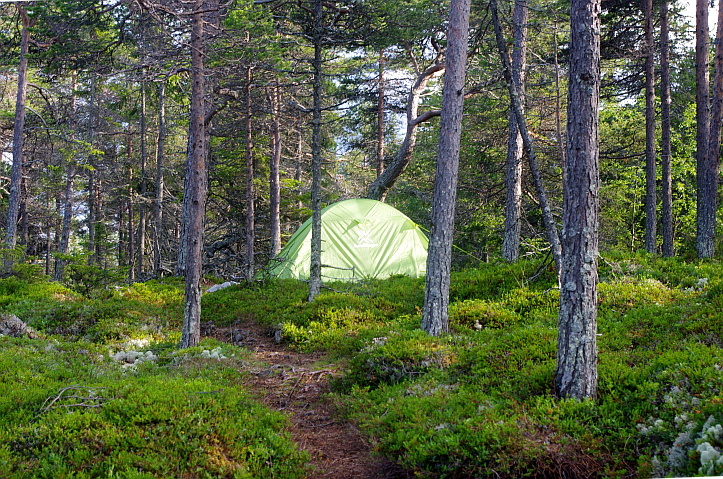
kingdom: Plantae
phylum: Tracheophyta
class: Pinopsida
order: Pinales
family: Pinaceae
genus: Pinus
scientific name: Pinus sylvestris
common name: Scots pine
